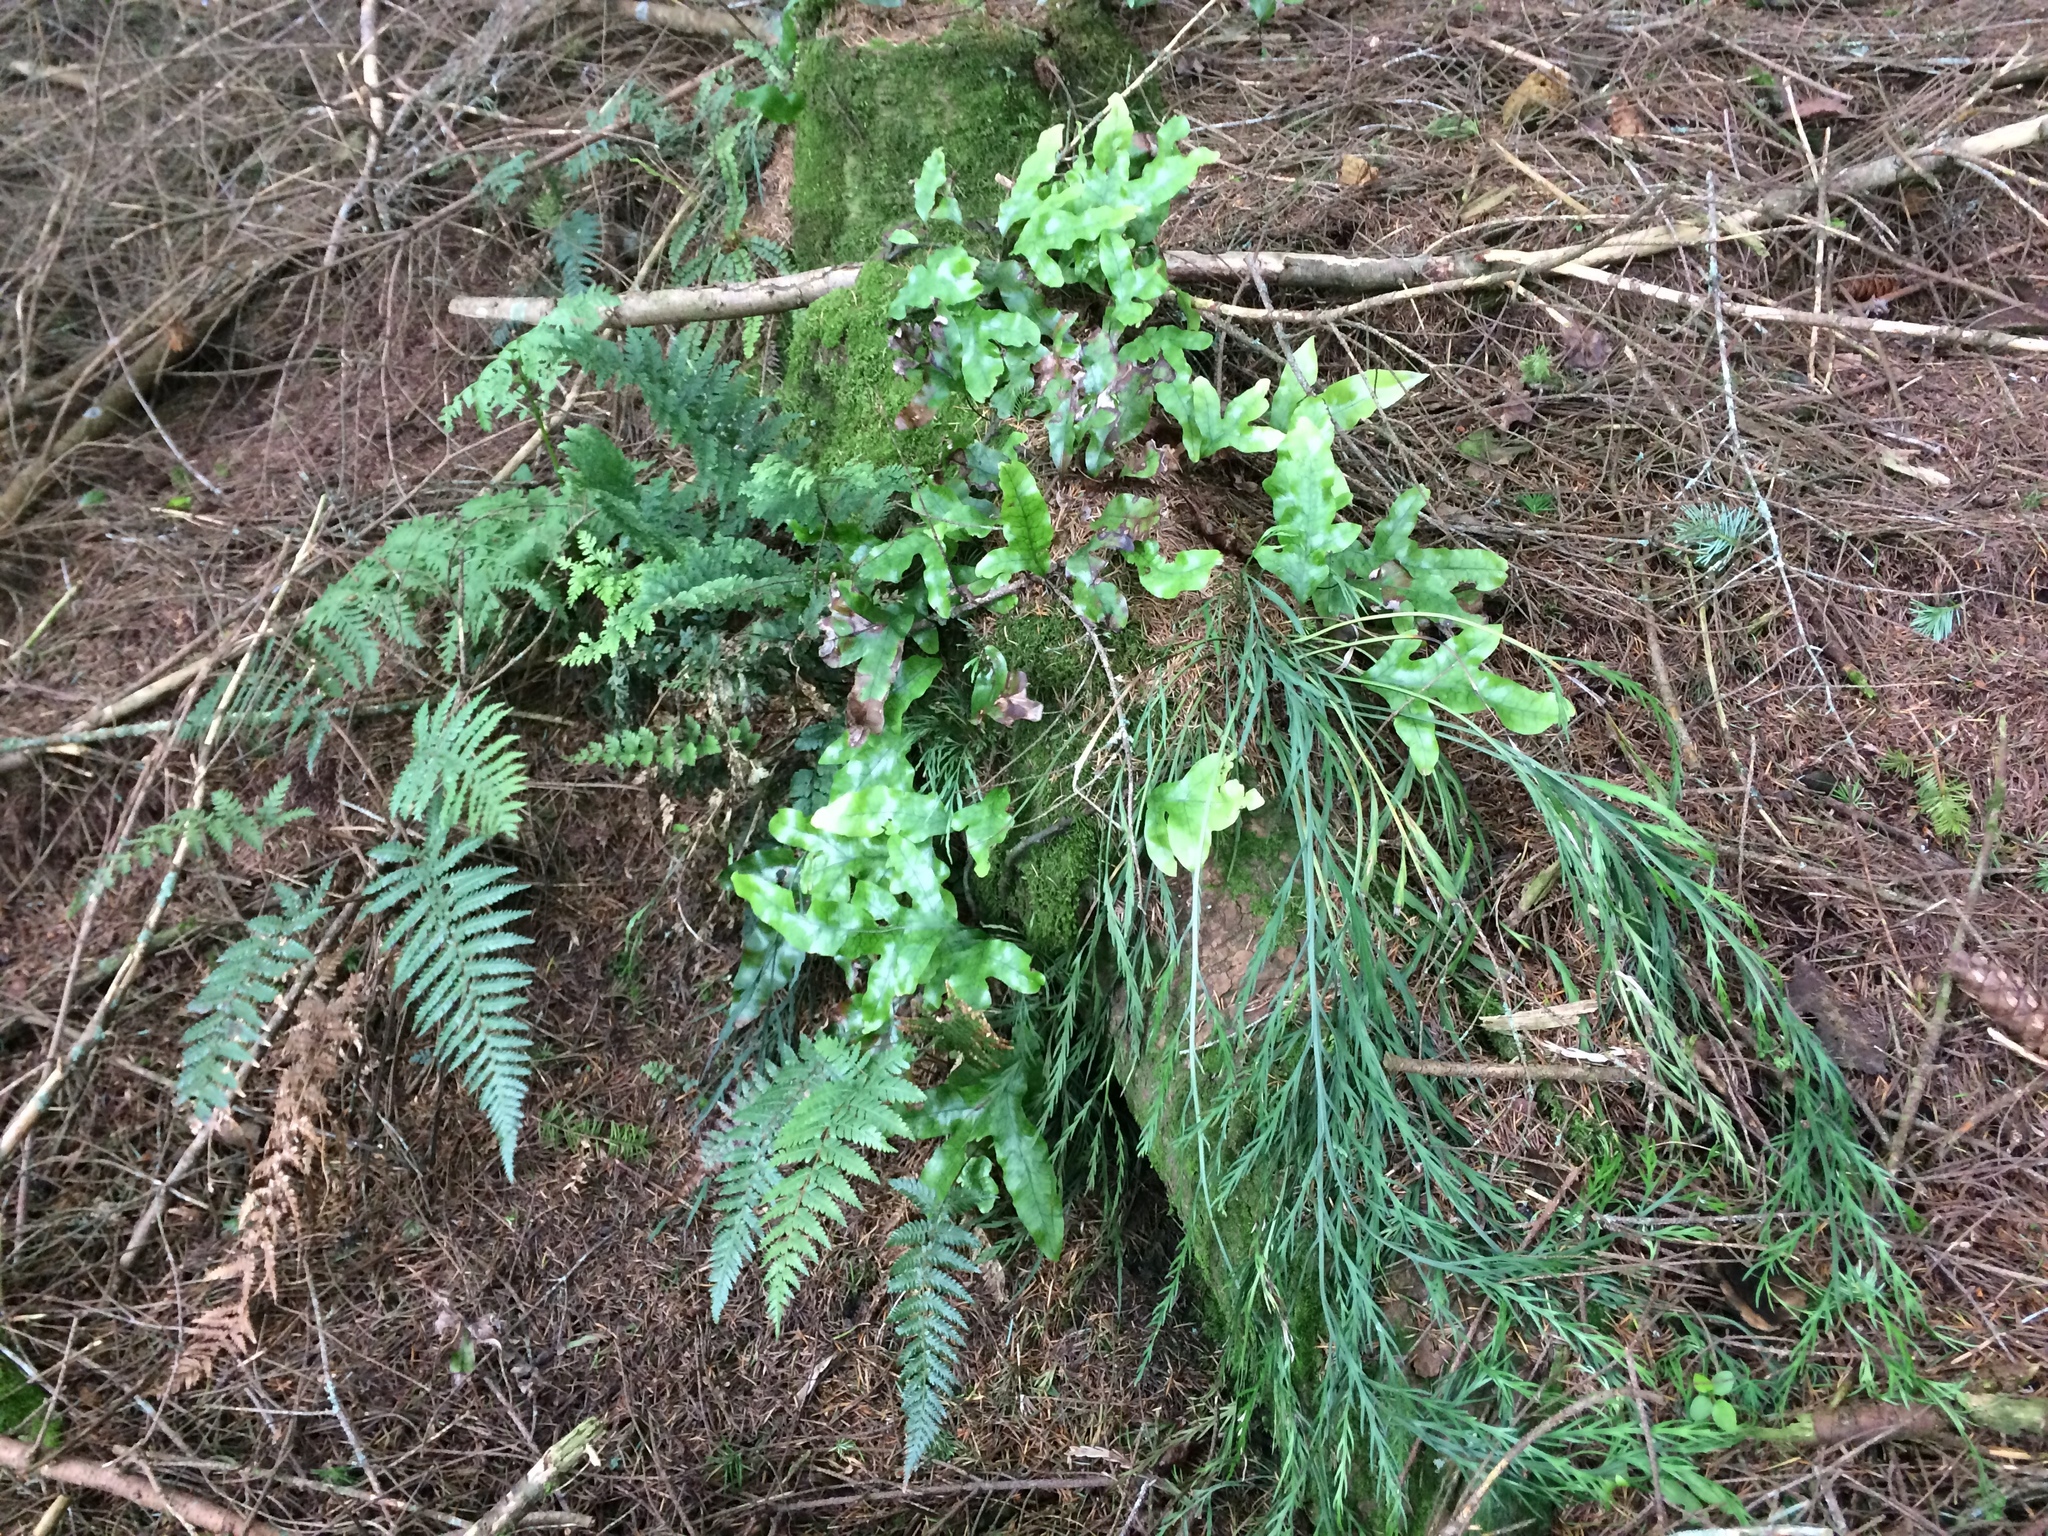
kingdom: Plantae
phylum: Tracheophyta
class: Polypodiopsida
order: Polypodiales
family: Aspleniaceae
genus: Asplenium
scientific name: Asplenium flaccidum
